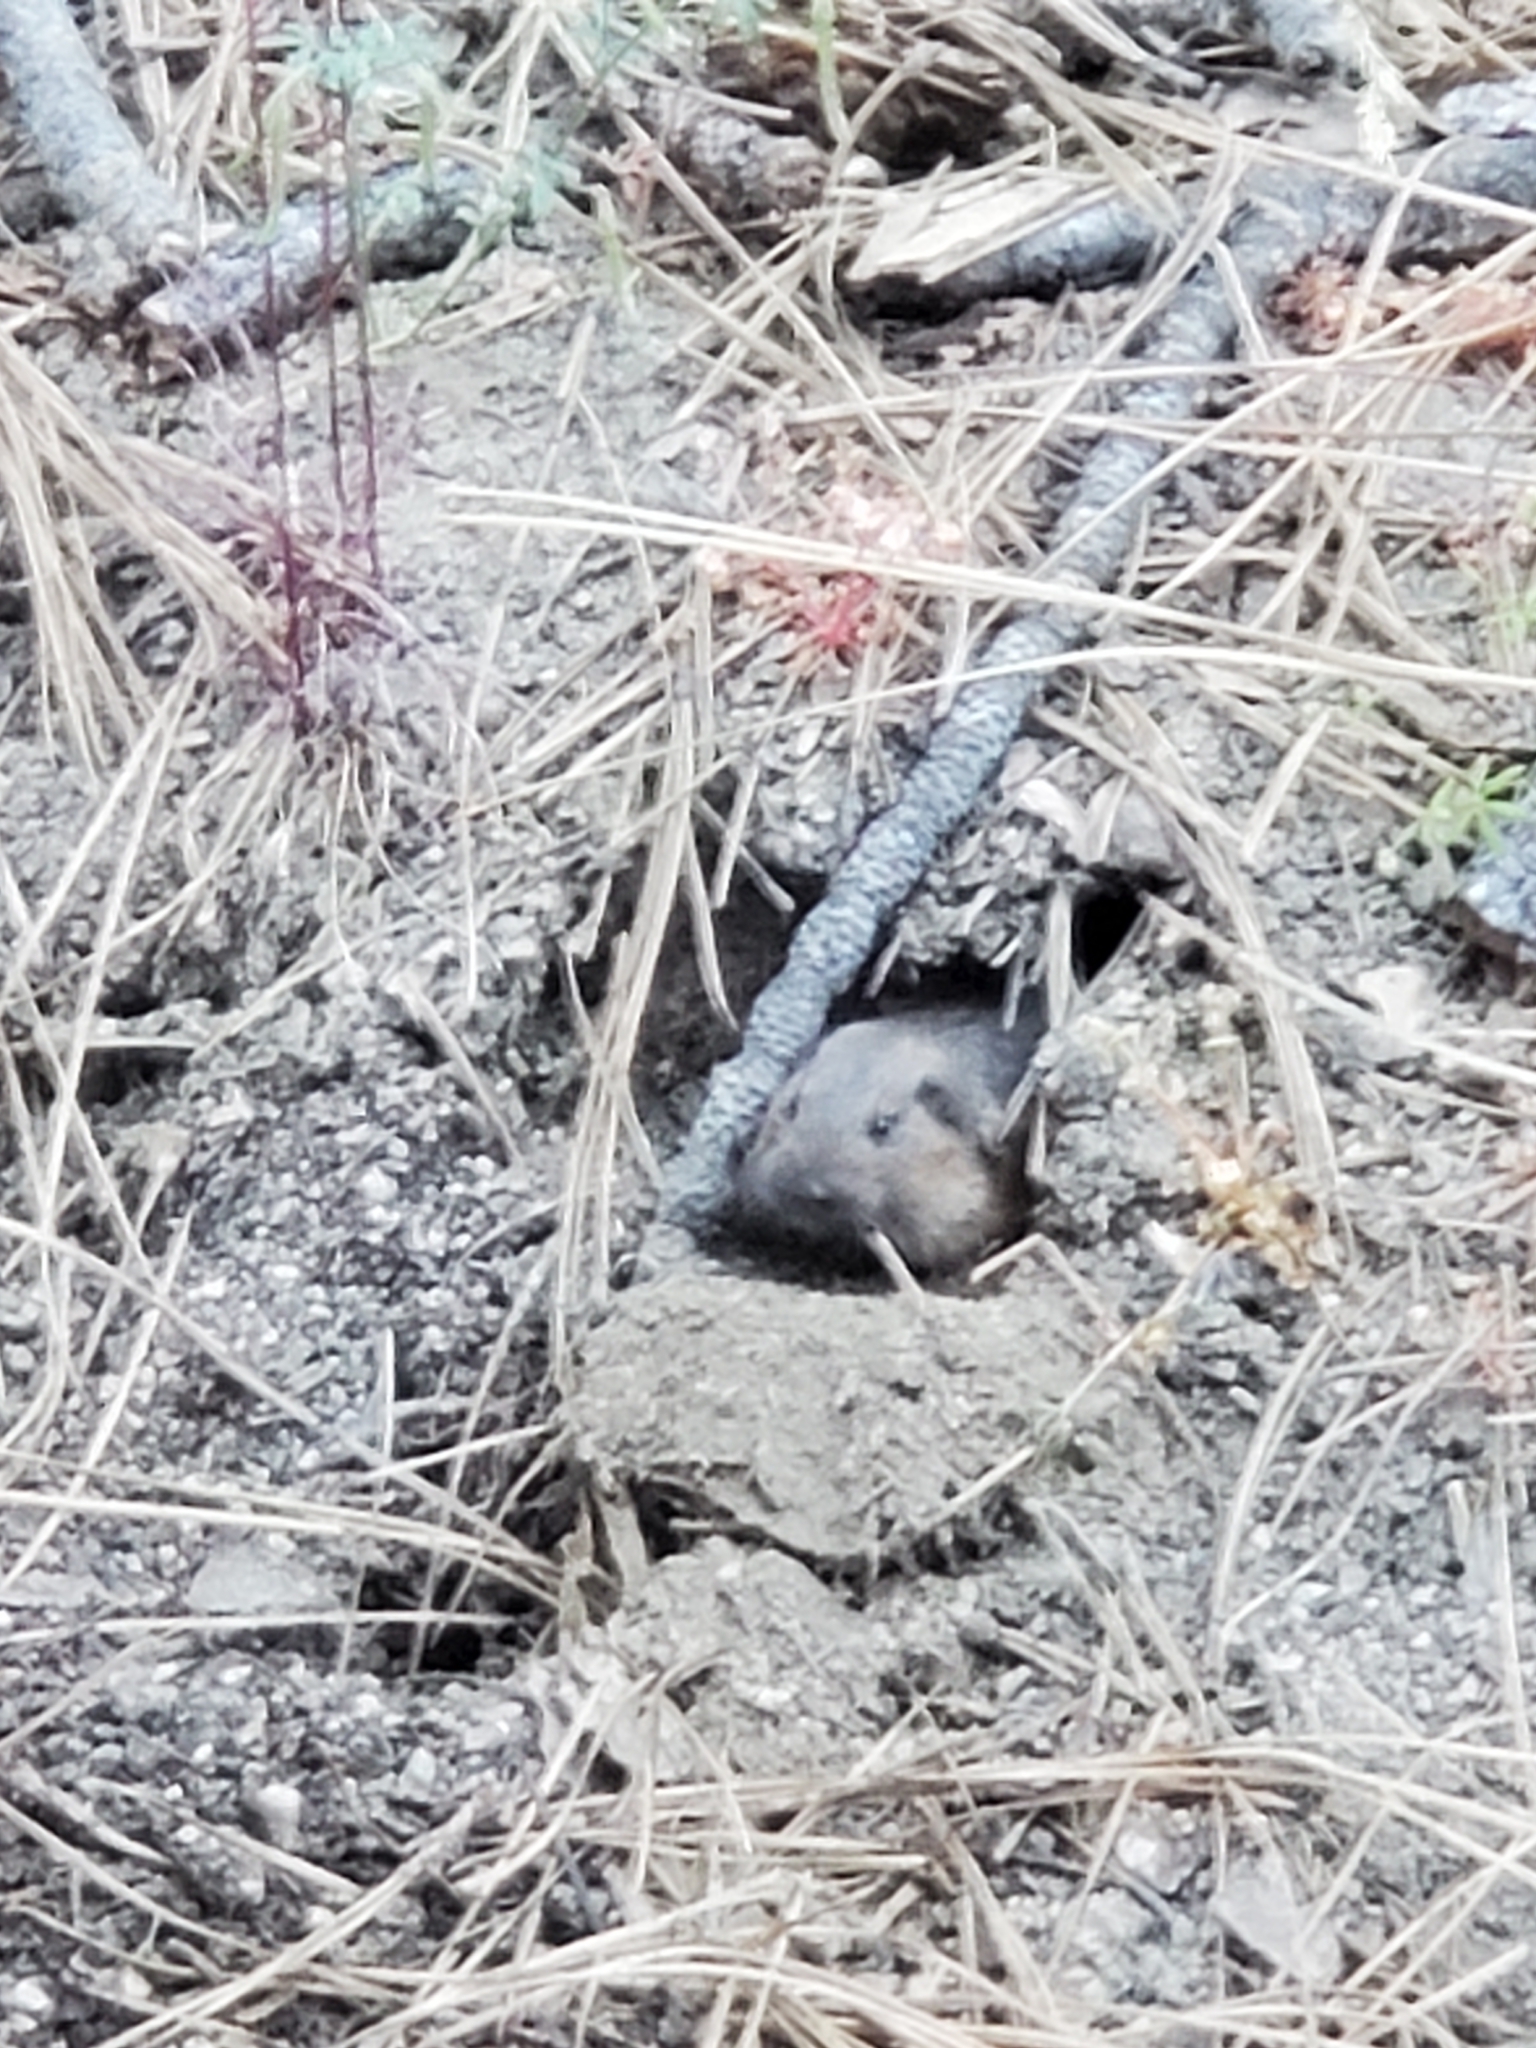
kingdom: Animalia
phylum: Chordata
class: Mammalia
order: Rodentia
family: Geomyidae
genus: Thomomys
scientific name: Thomomys bottae
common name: Botta's pocket gopher
